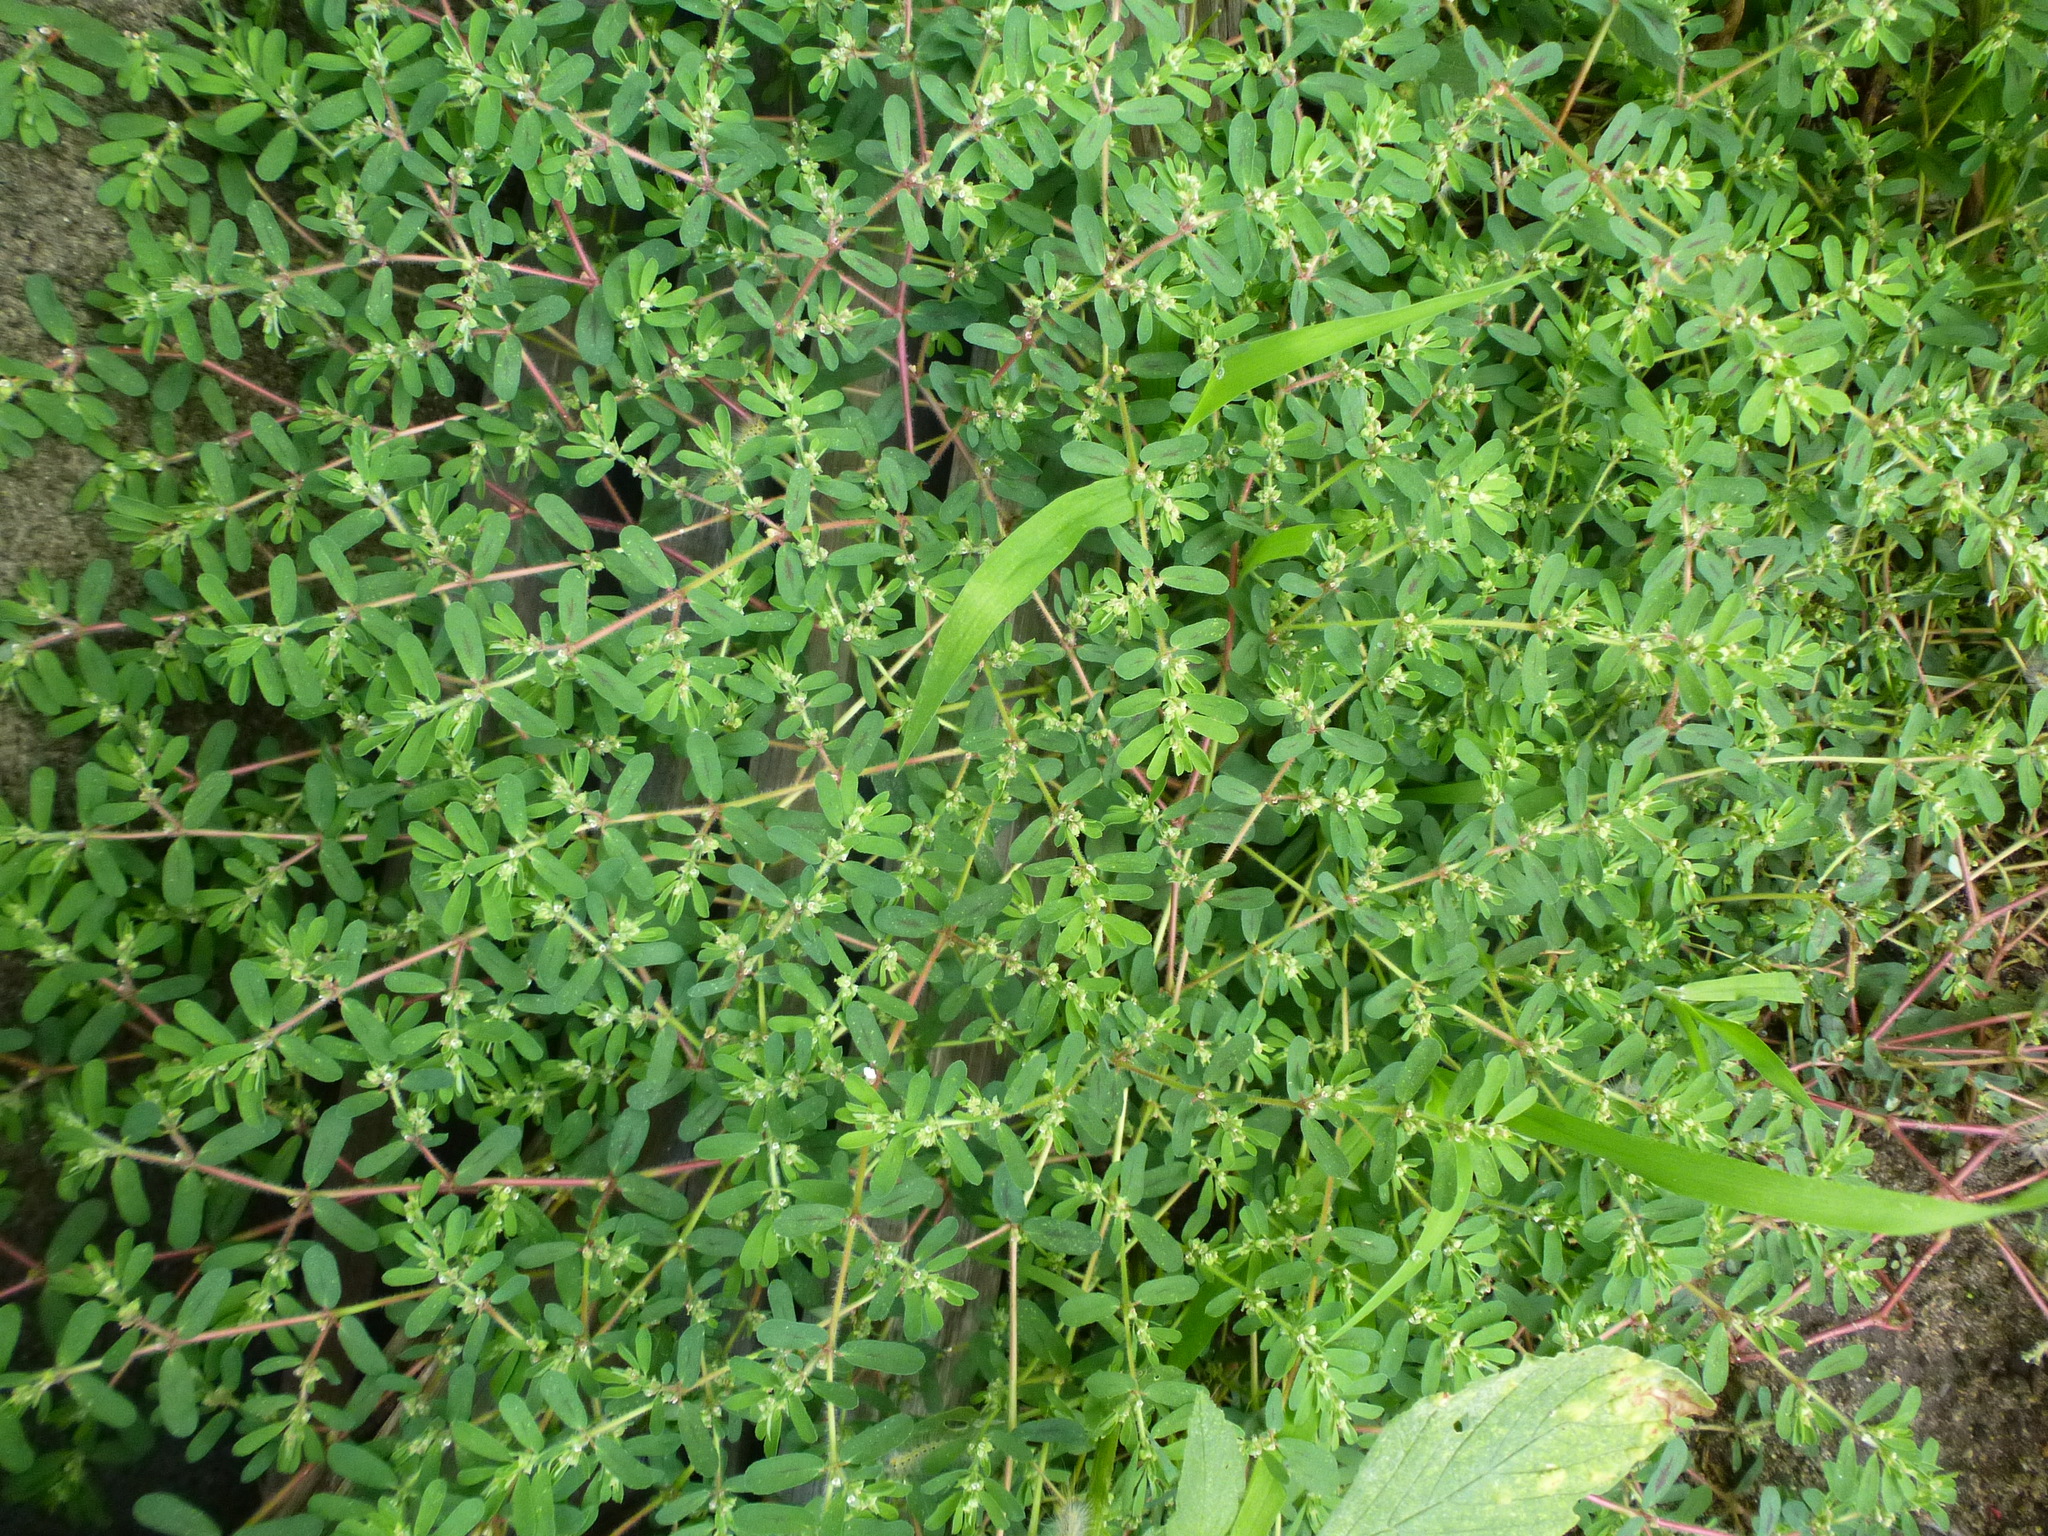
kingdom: Plantae
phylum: Tracheophyta
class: Magnoliopsida
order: Malpighiales
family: Euphorbiaceae
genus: Euphorbia
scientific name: Euphorbia maculata
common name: Spotted spurge
